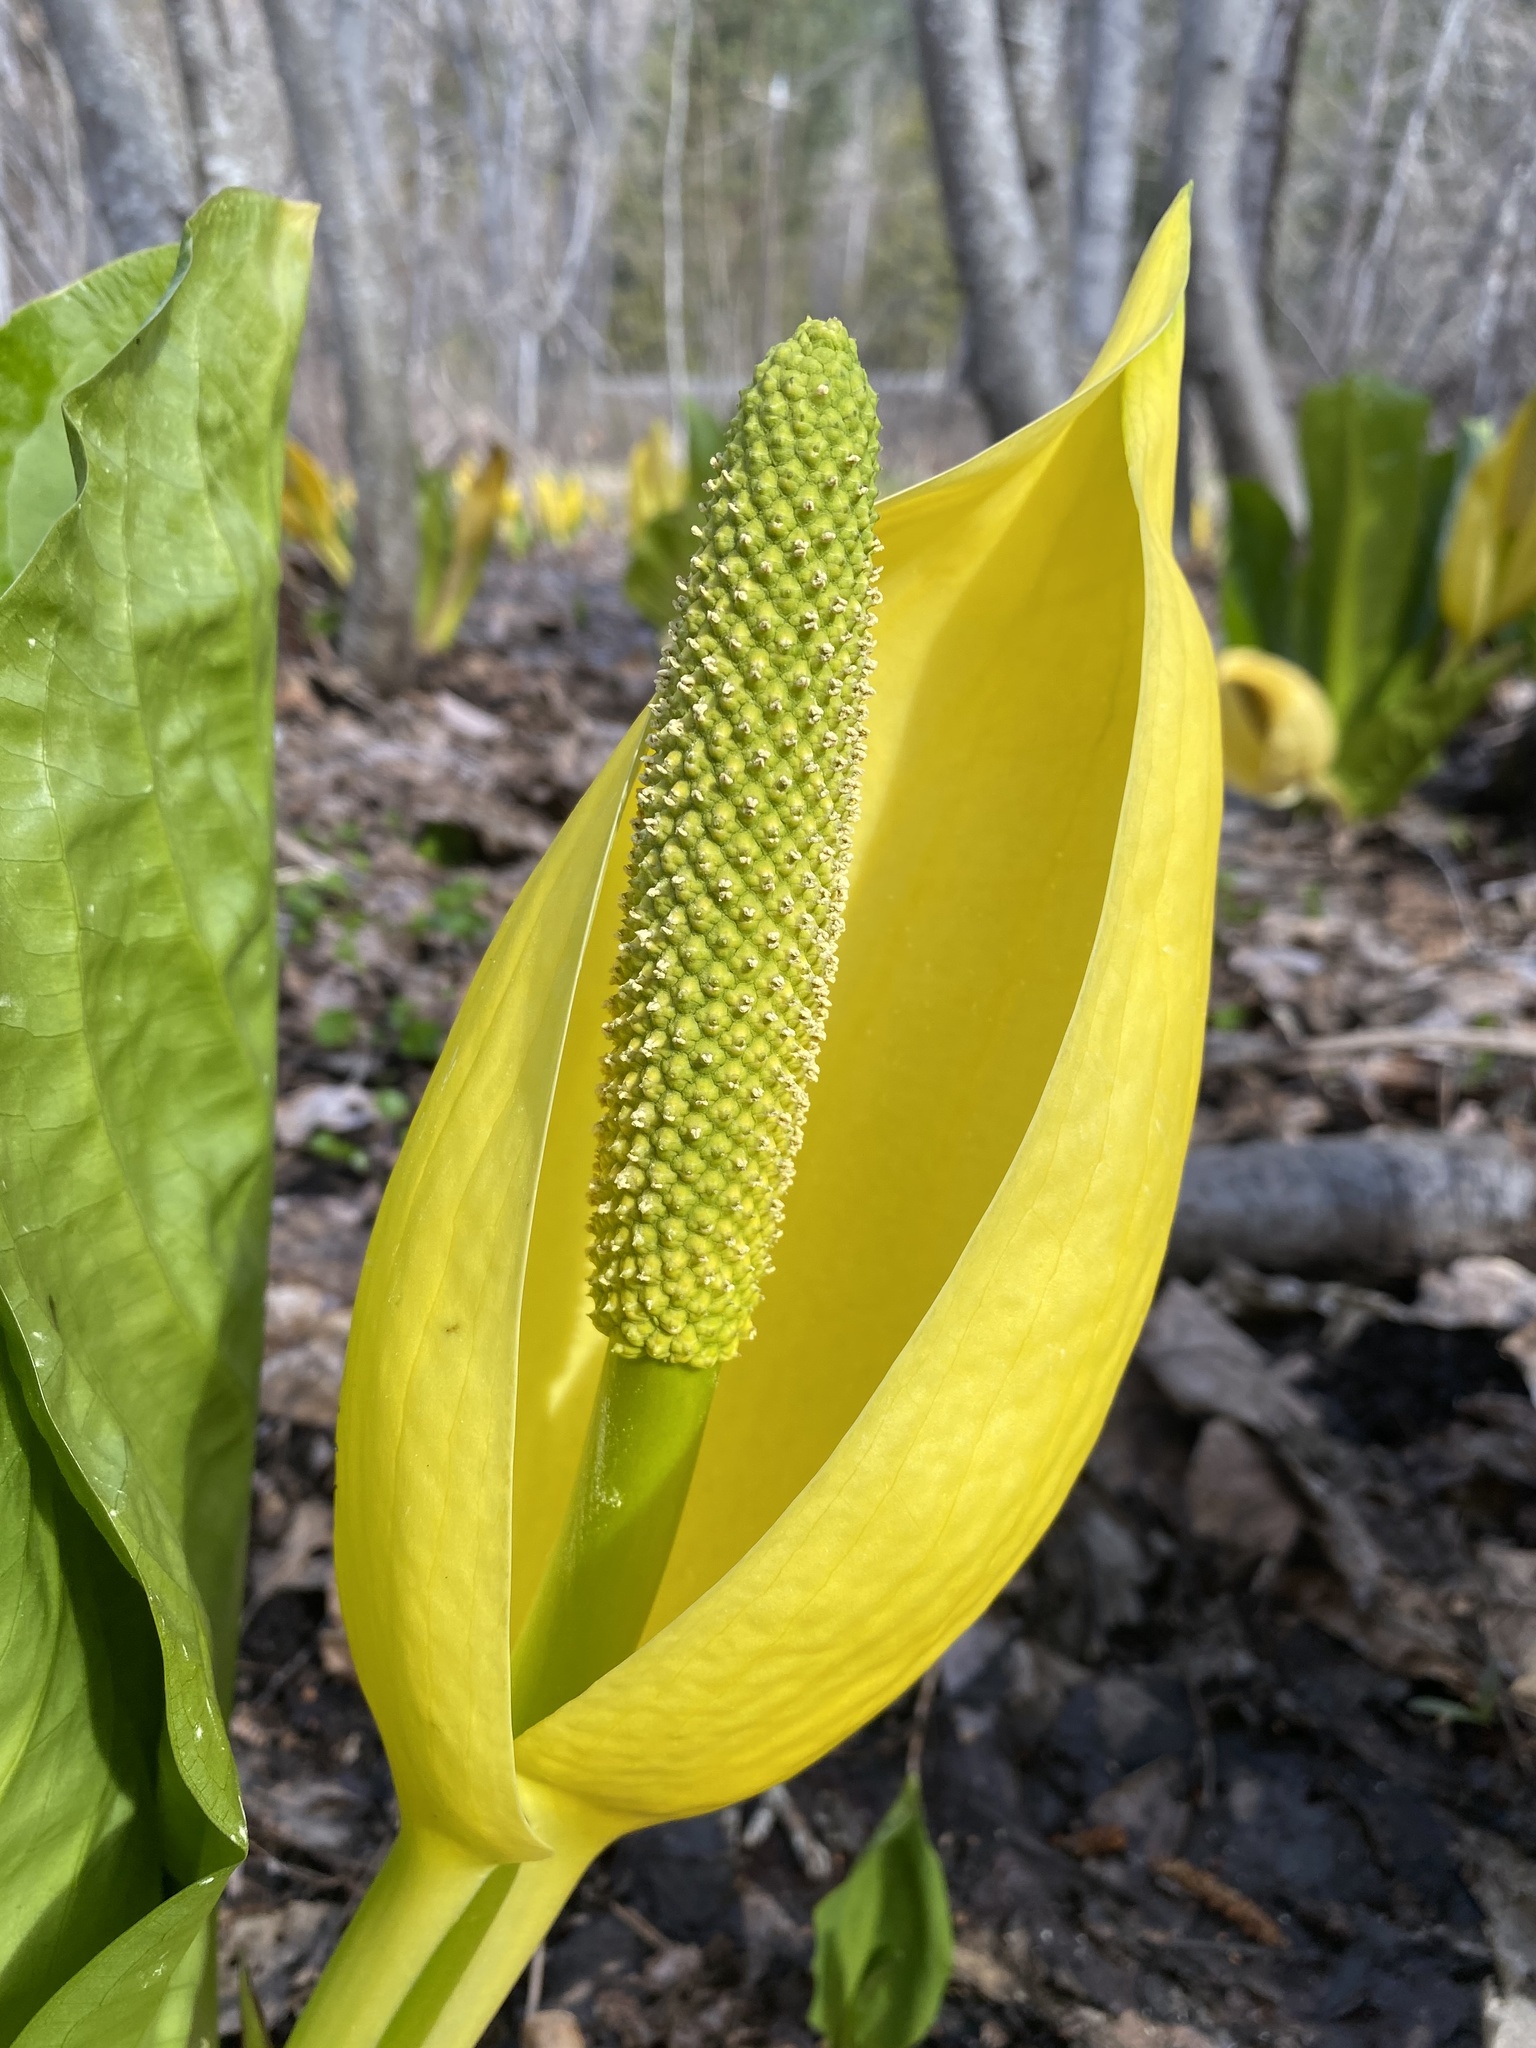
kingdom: Plantae
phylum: Tracheophyta
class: Liliopsida
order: Alismatales
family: Araceae
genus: Lysichiton
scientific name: Lysichiton americanus
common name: American skunk cabbage
